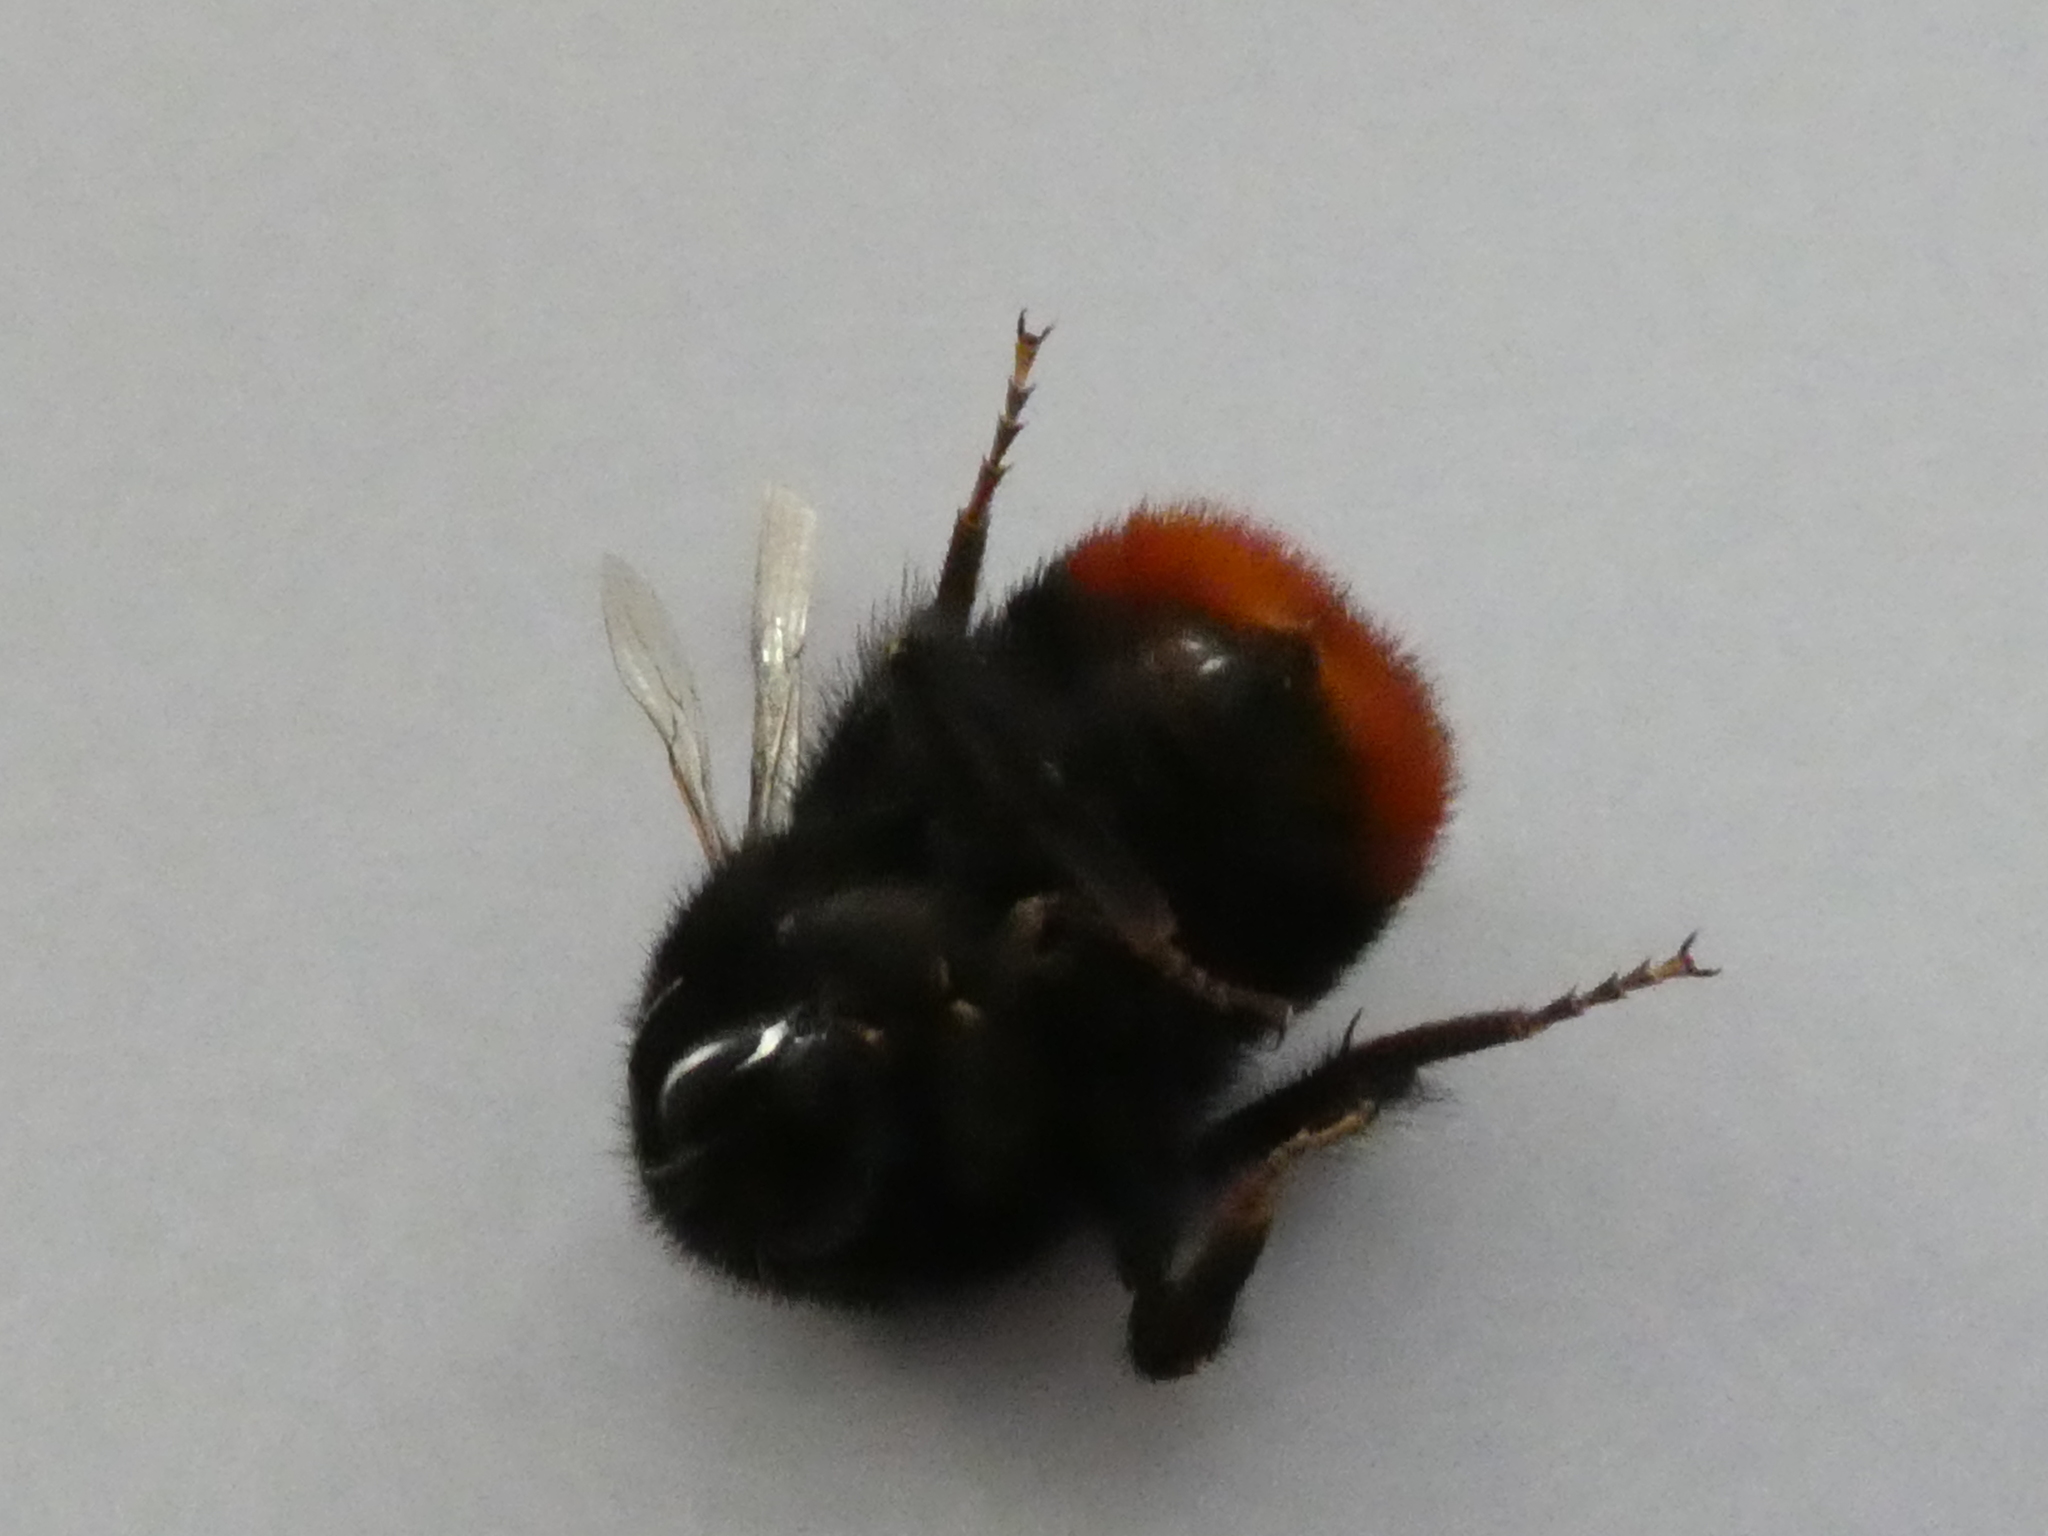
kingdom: Animalia
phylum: Arthropoda
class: Insecta
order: Hymenoptera
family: Apidae
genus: Bombus
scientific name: Bombus lapidarius
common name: Large red-tailed humble-bee
